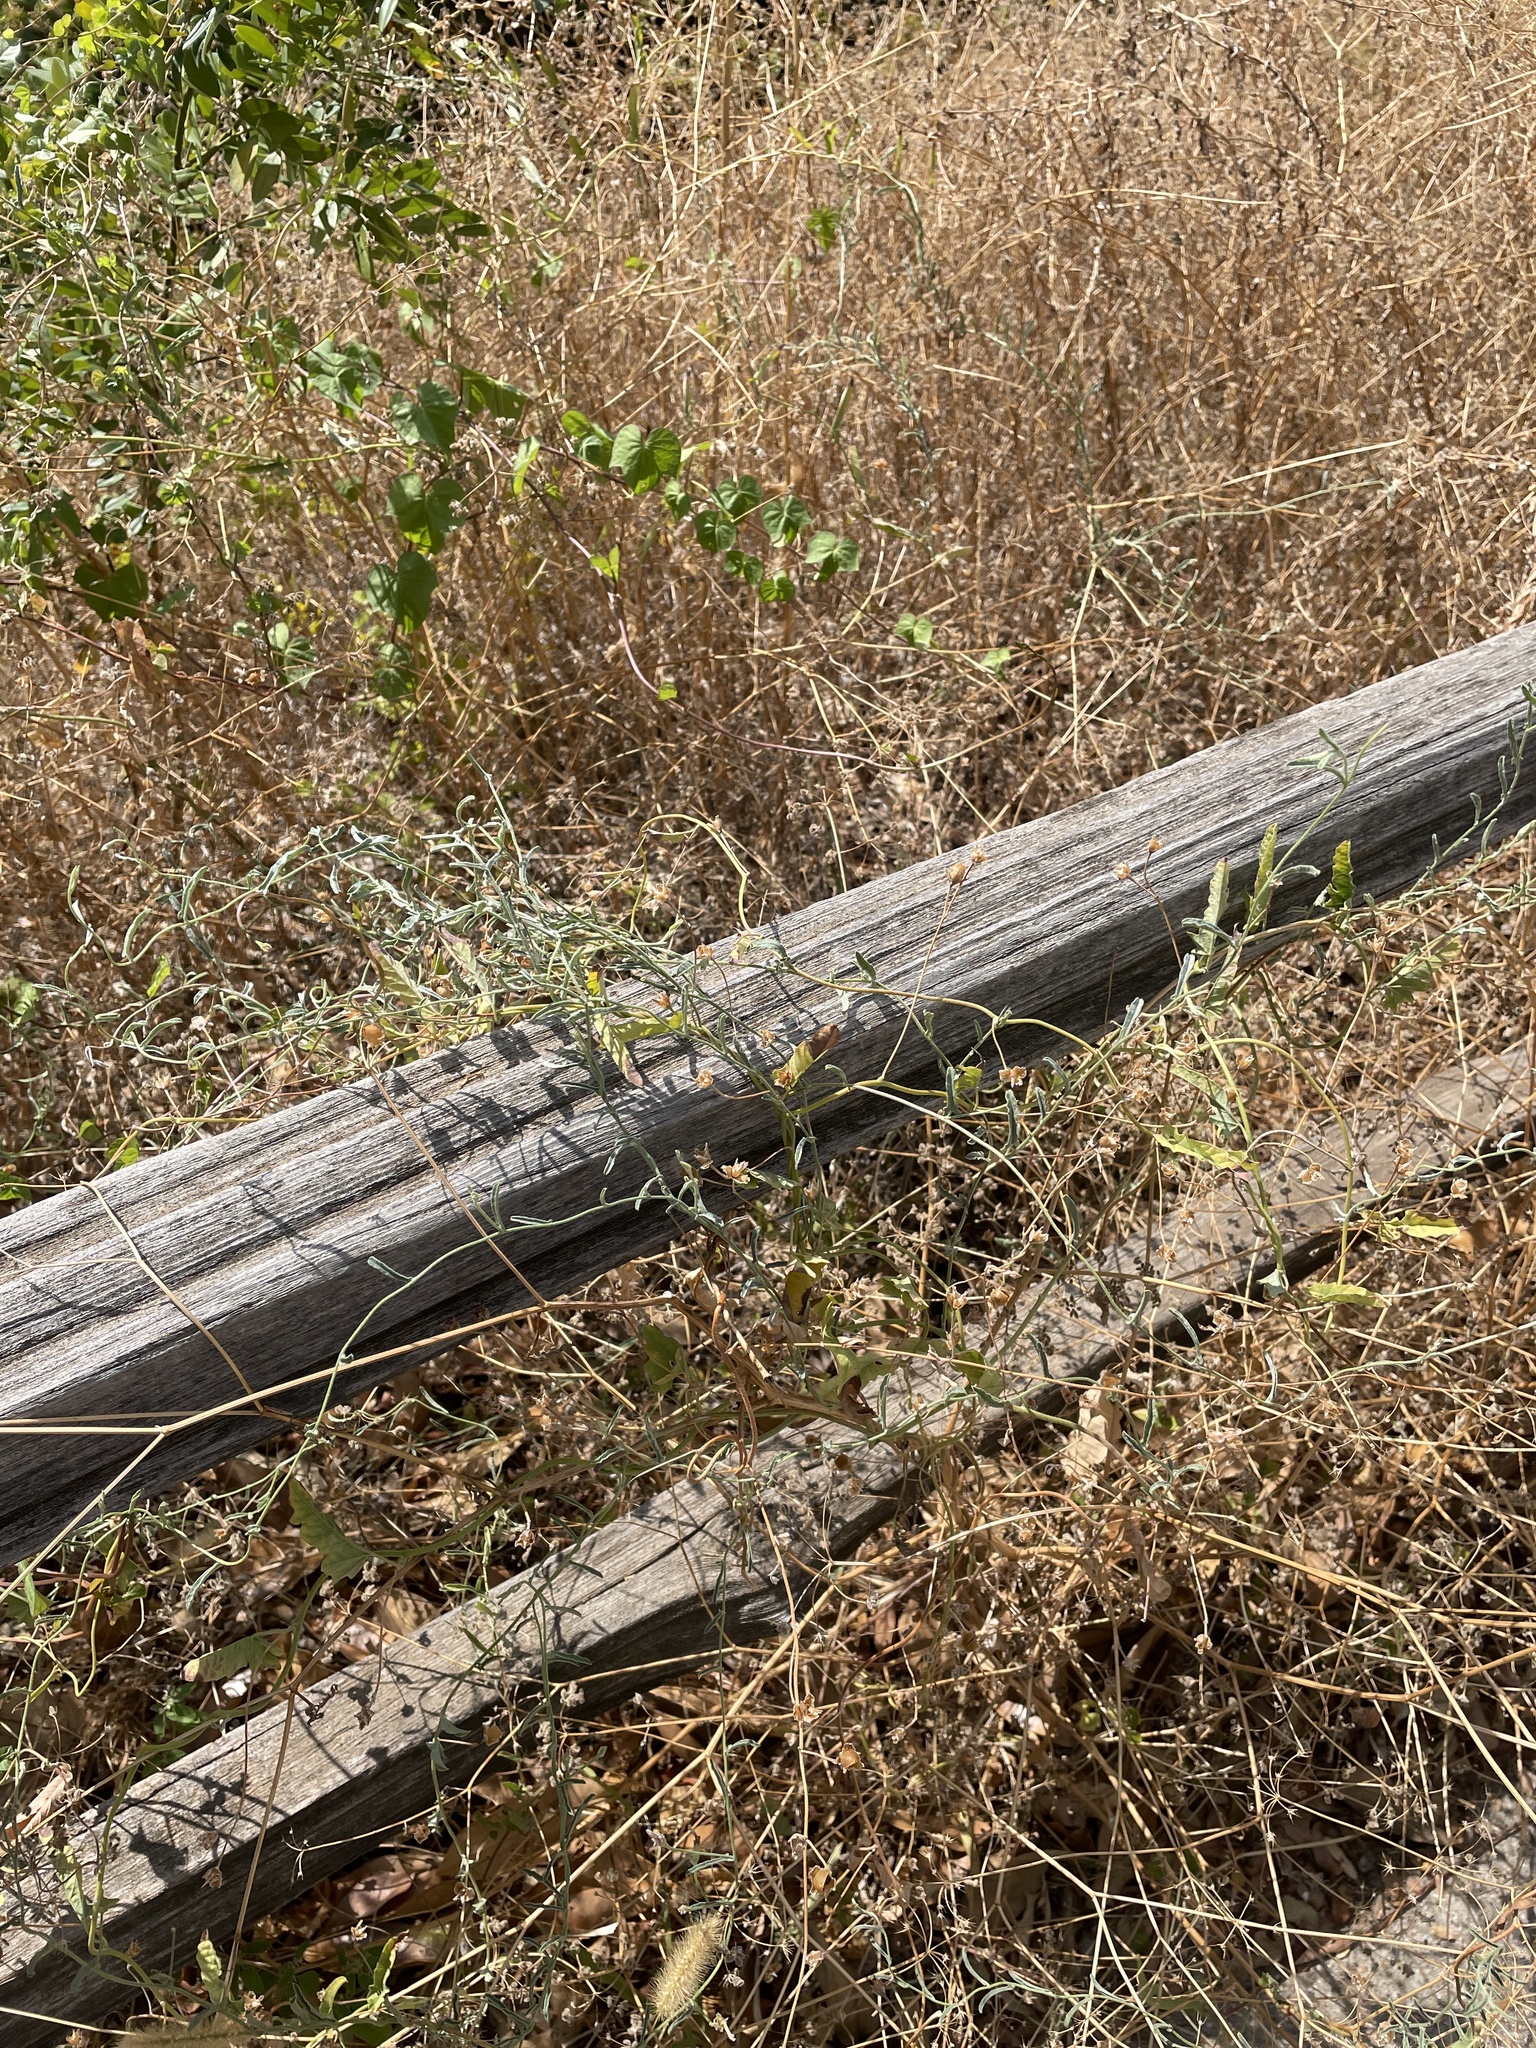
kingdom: Plantae
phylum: Tracheophyta
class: Magnoliopsida
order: Solanales
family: Convolvulaceae
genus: Convolvulus
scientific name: Convolvulus equitans
